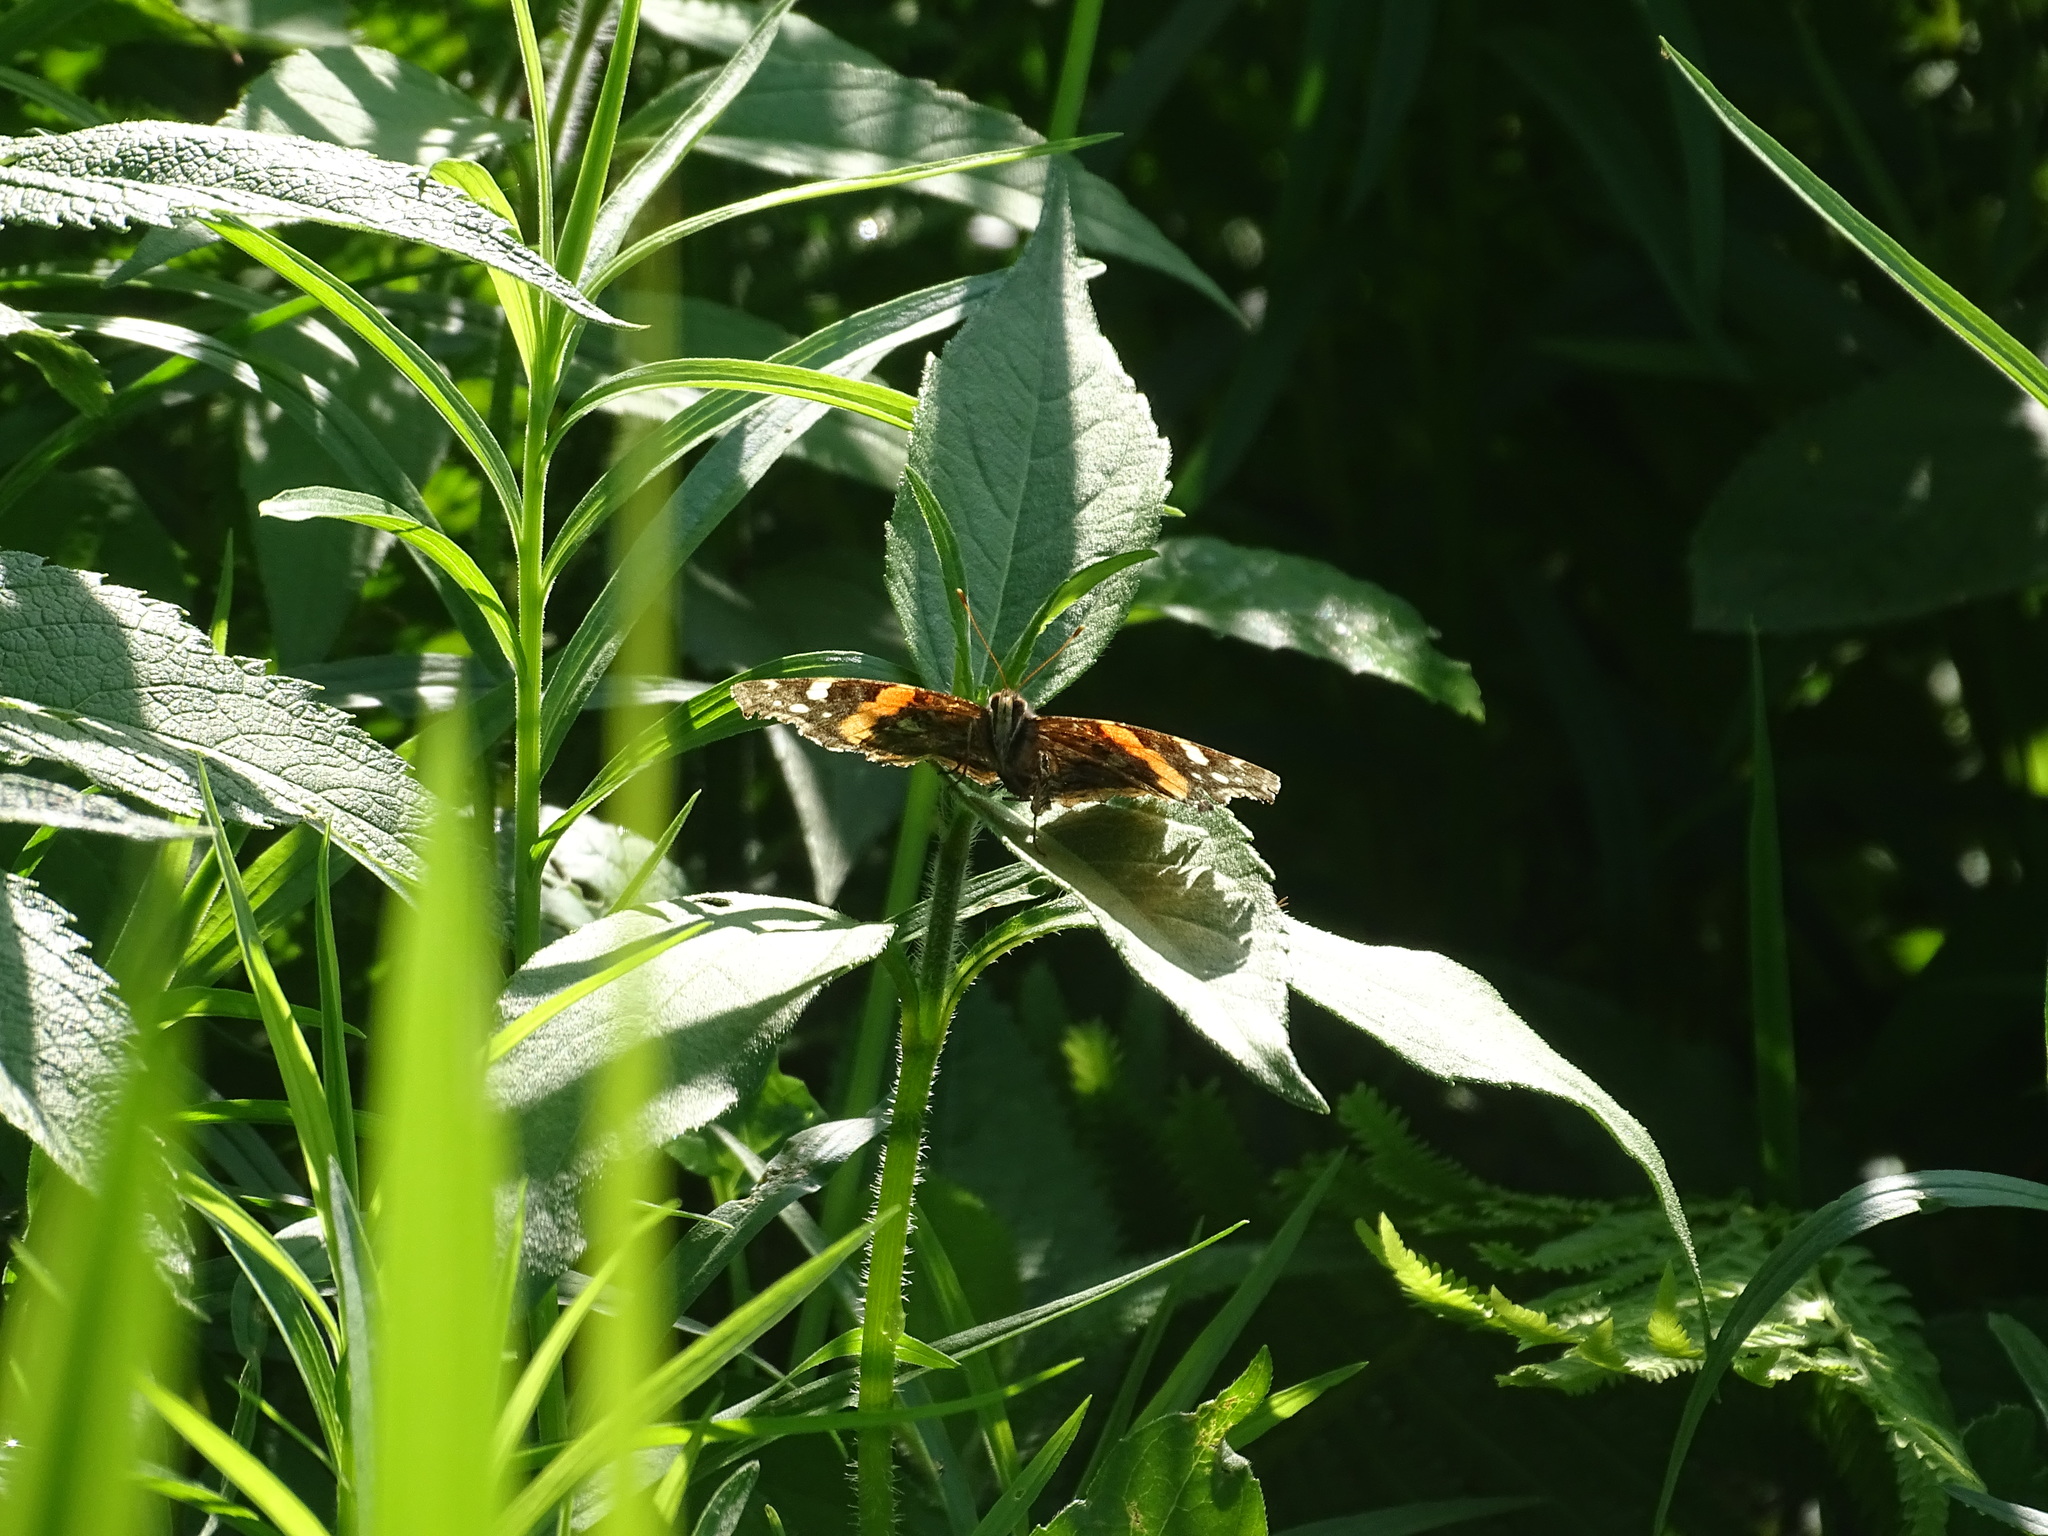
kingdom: Animalia
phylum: Arthropoda
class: Insecta
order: Lepidoptera
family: Nymphalidae
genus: Vanessa
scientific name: Vanessa atalanta
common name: Red admiral
